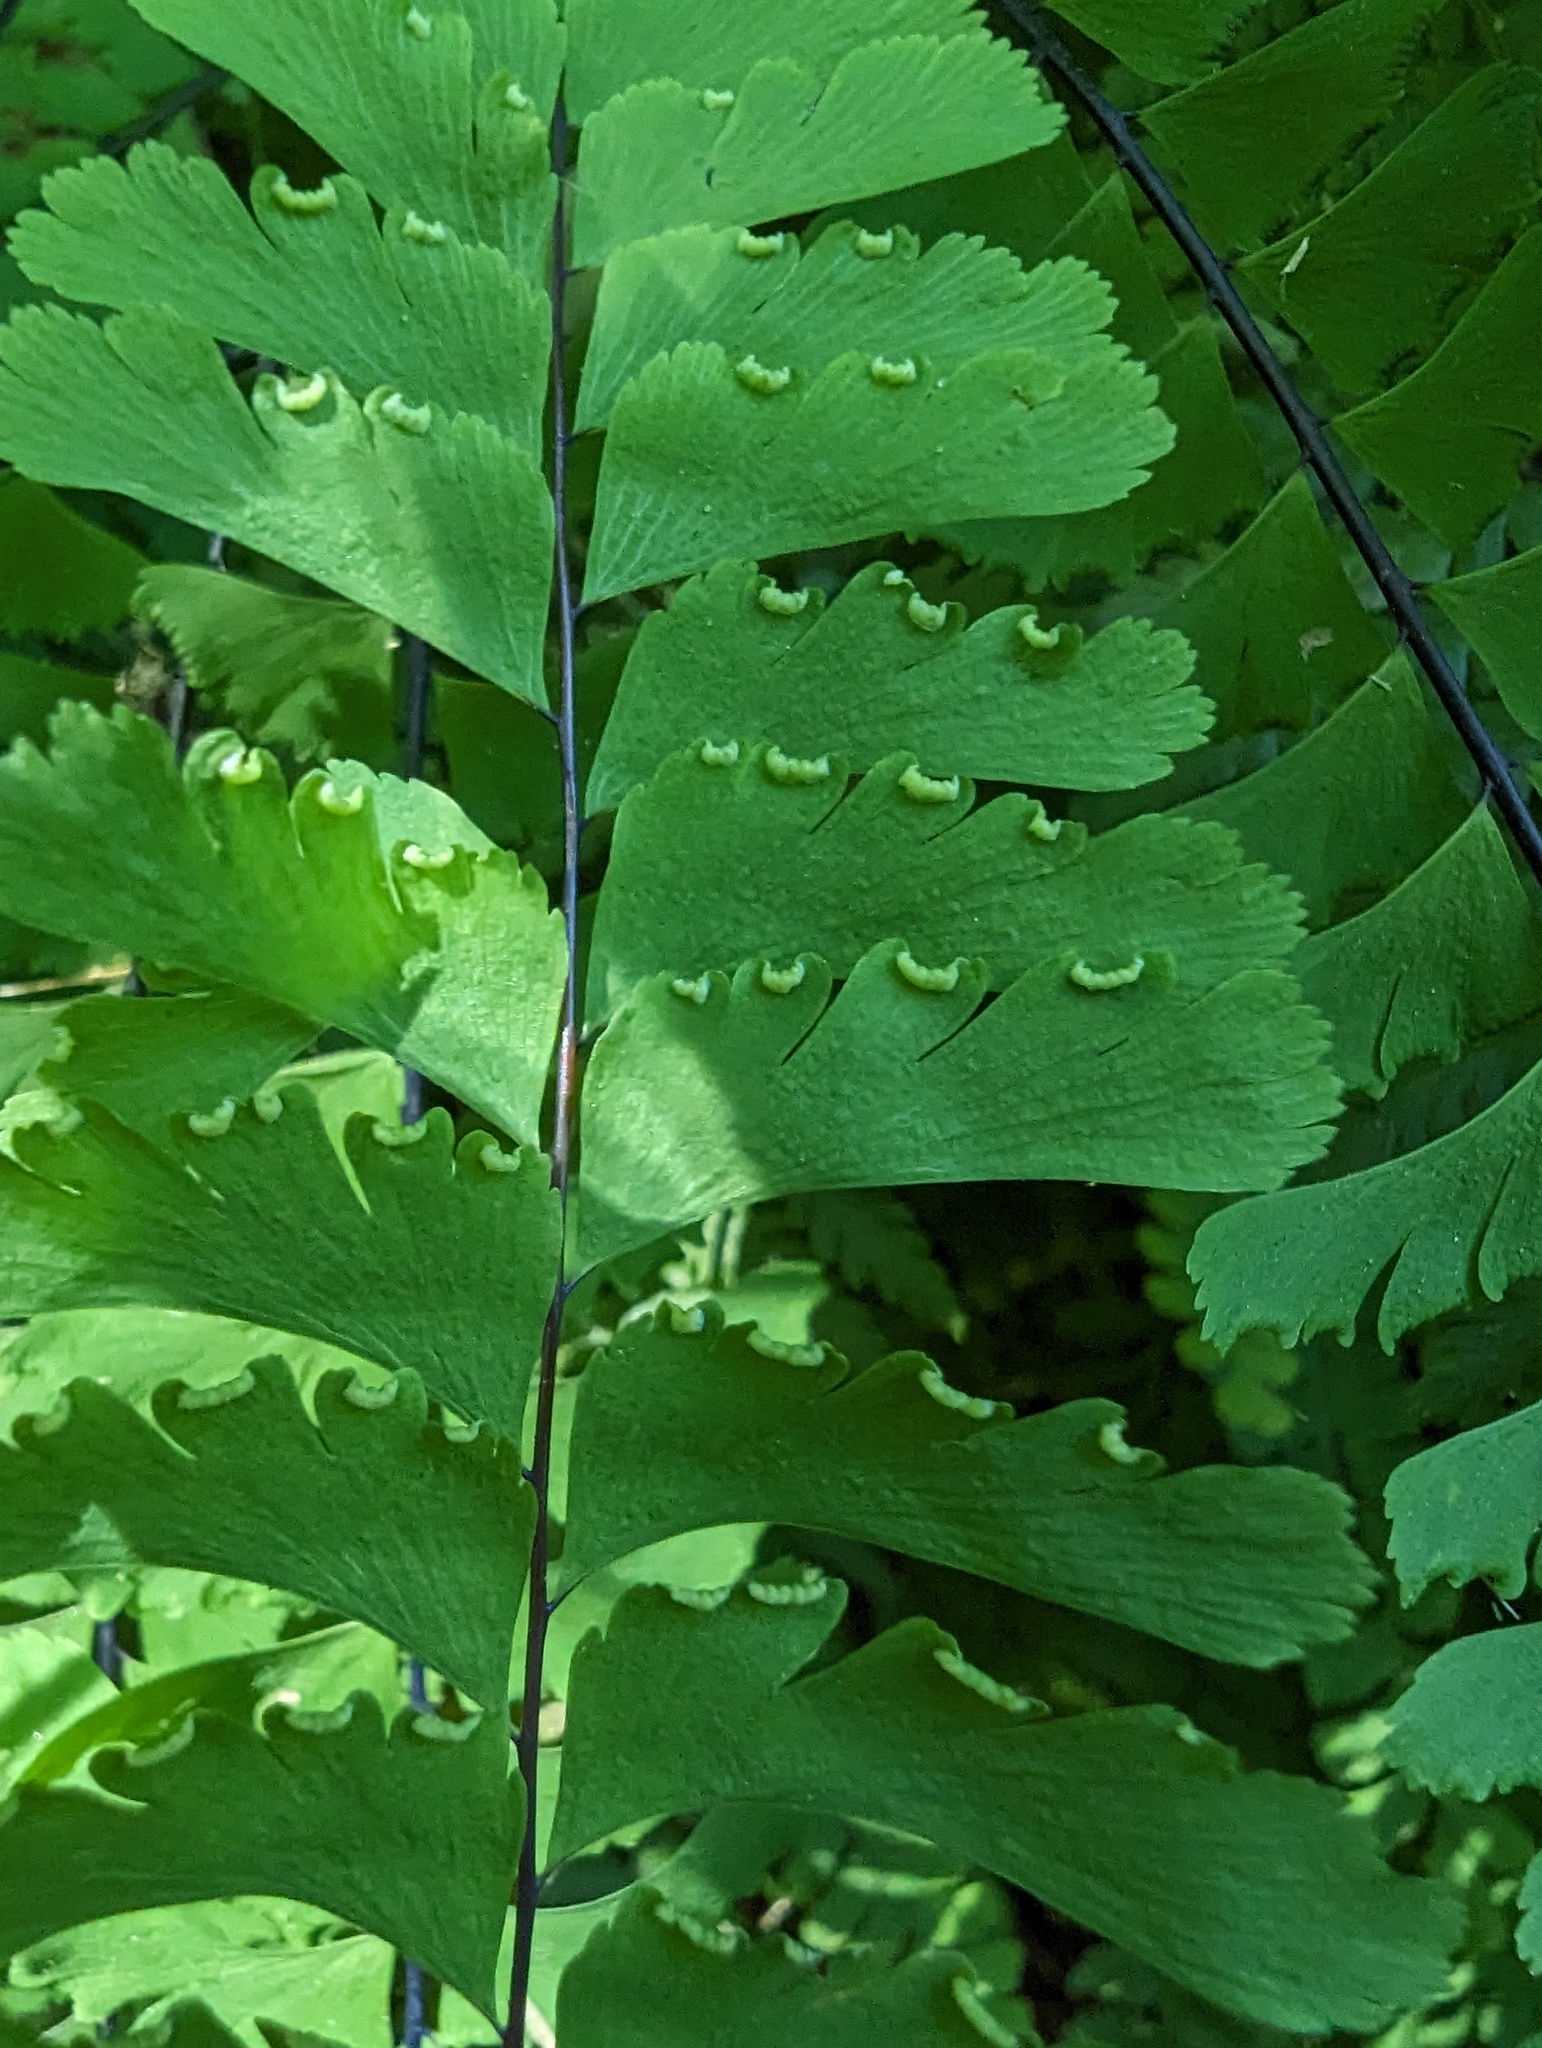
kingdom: Plantae
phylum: Tracheophyta
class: Polypodiopsida
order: Polypodiales
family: Pteridaceae
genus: Adiantum
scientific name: Adiantum aleuticum
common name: Aleutian maidenhair fern
